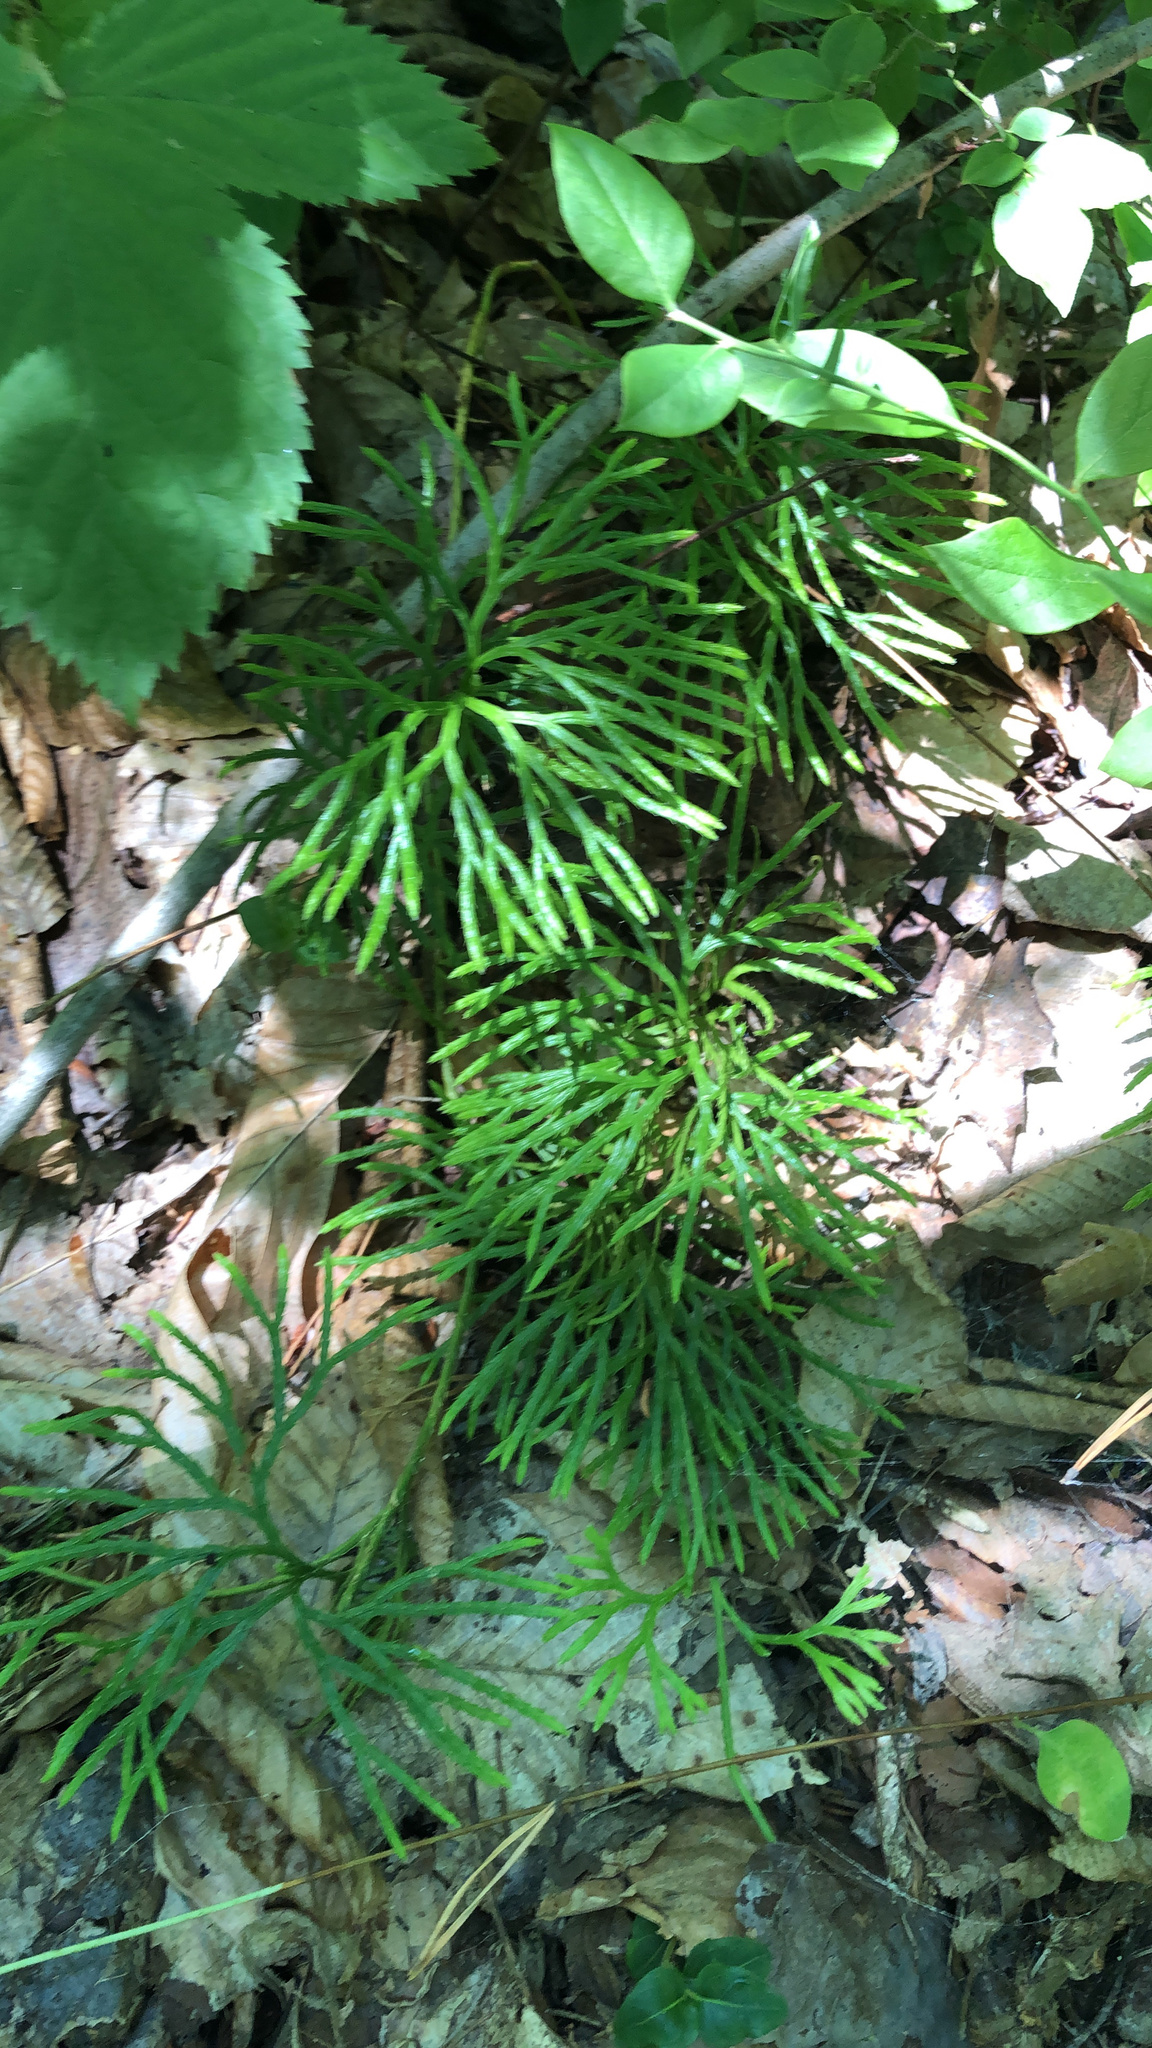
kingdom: Plantae
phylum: Tracheophyta
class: Lycopodiopsida
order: Lycopodiales
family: Lycopodiaceae
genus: Diphasiastrum
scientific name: Diphasiastrum digitatum
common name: Southern running-pine
